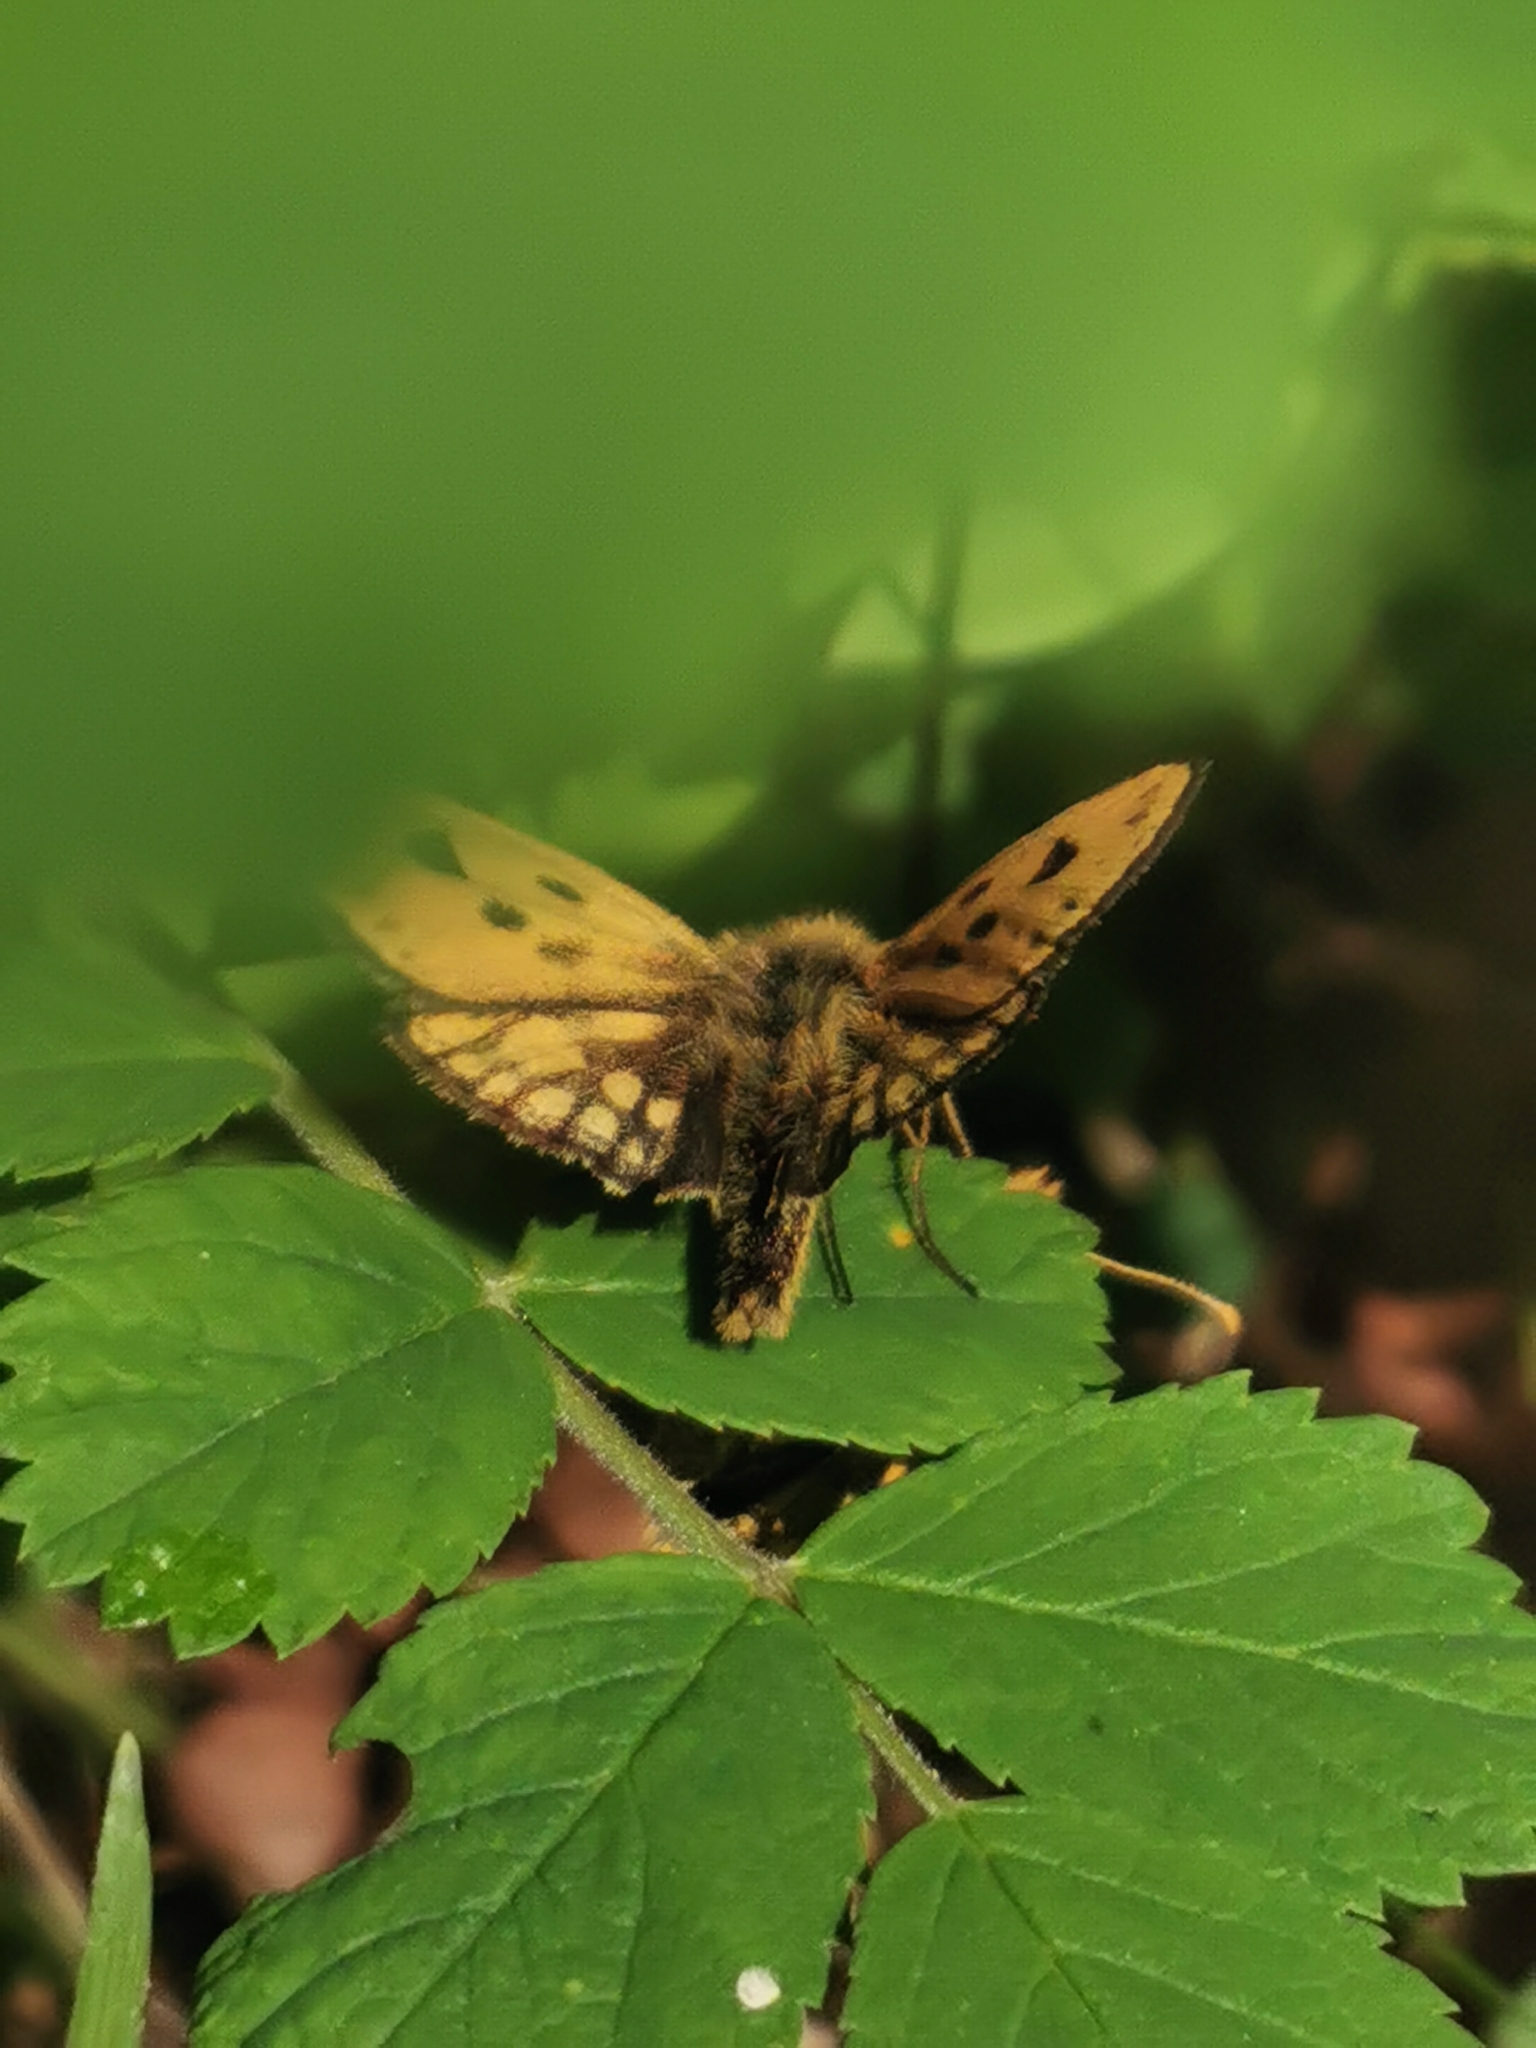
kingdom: Animalia
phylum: Arthropoda
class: Insecta
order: Lepidoptera
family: Hesperiidae
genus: Carterocephalus
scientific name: Carterocephalus silvicola
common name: Northern chequered skipper
